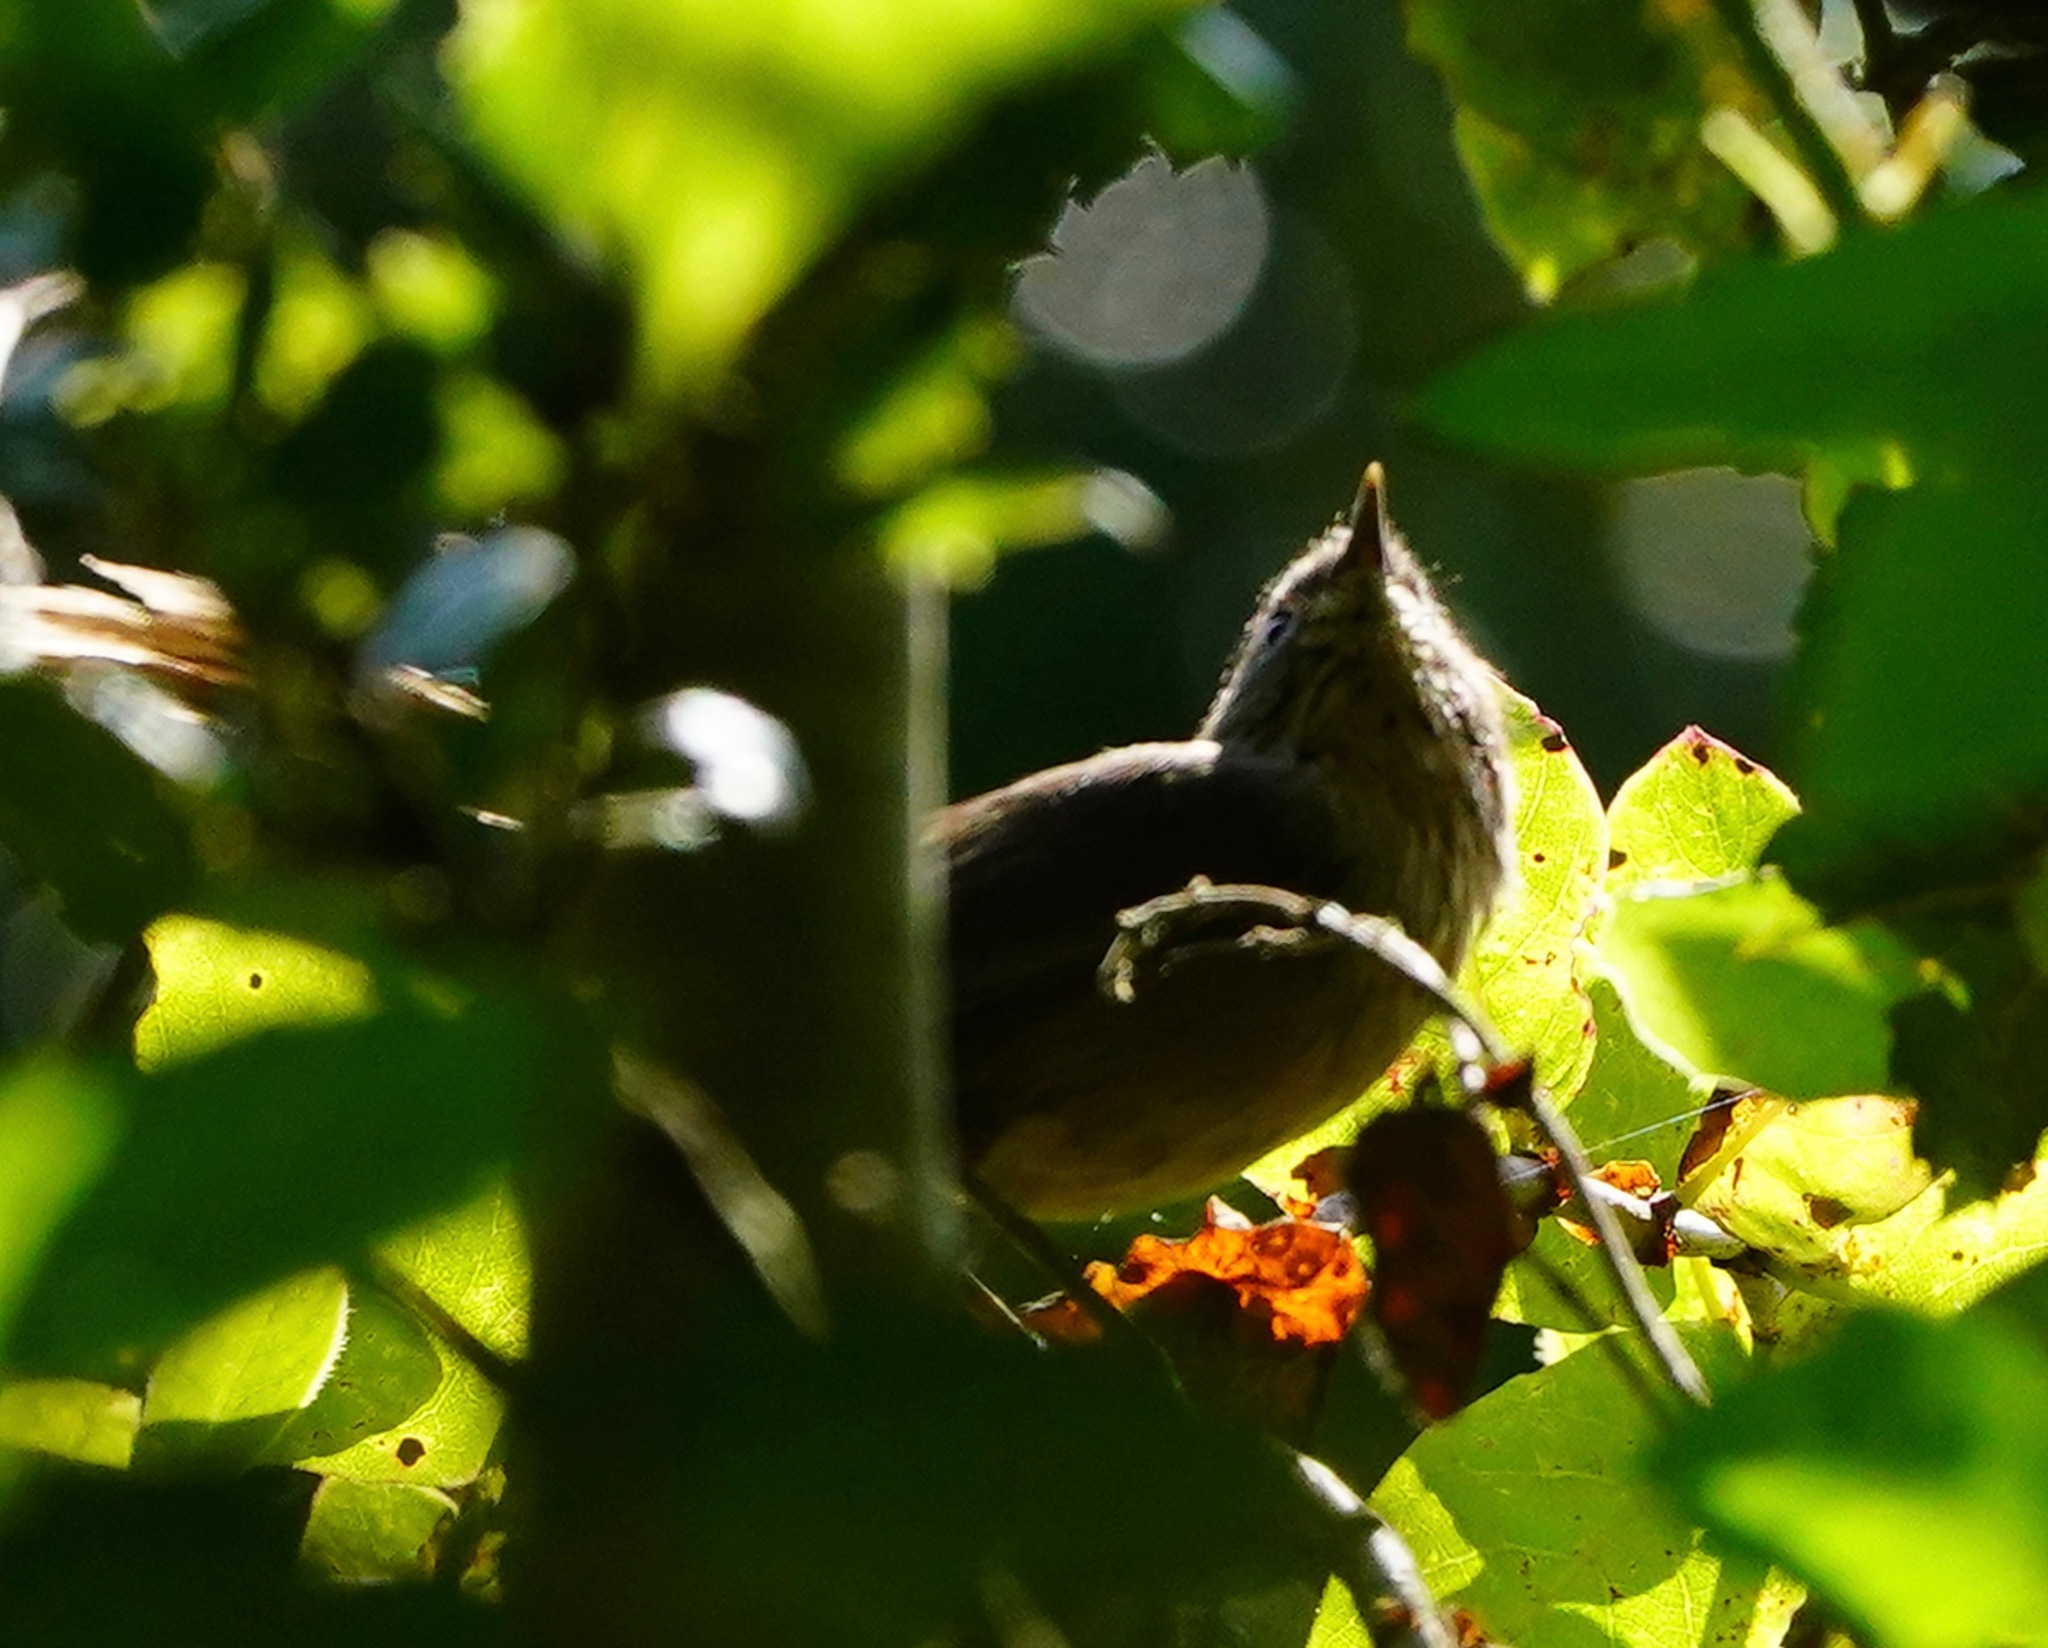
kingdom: Animalia
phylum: Chordata
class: Aves
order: Passeriformes
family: Sylviidae
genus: Chamaea
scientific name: Chamaea fasciata
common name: Wrentit
